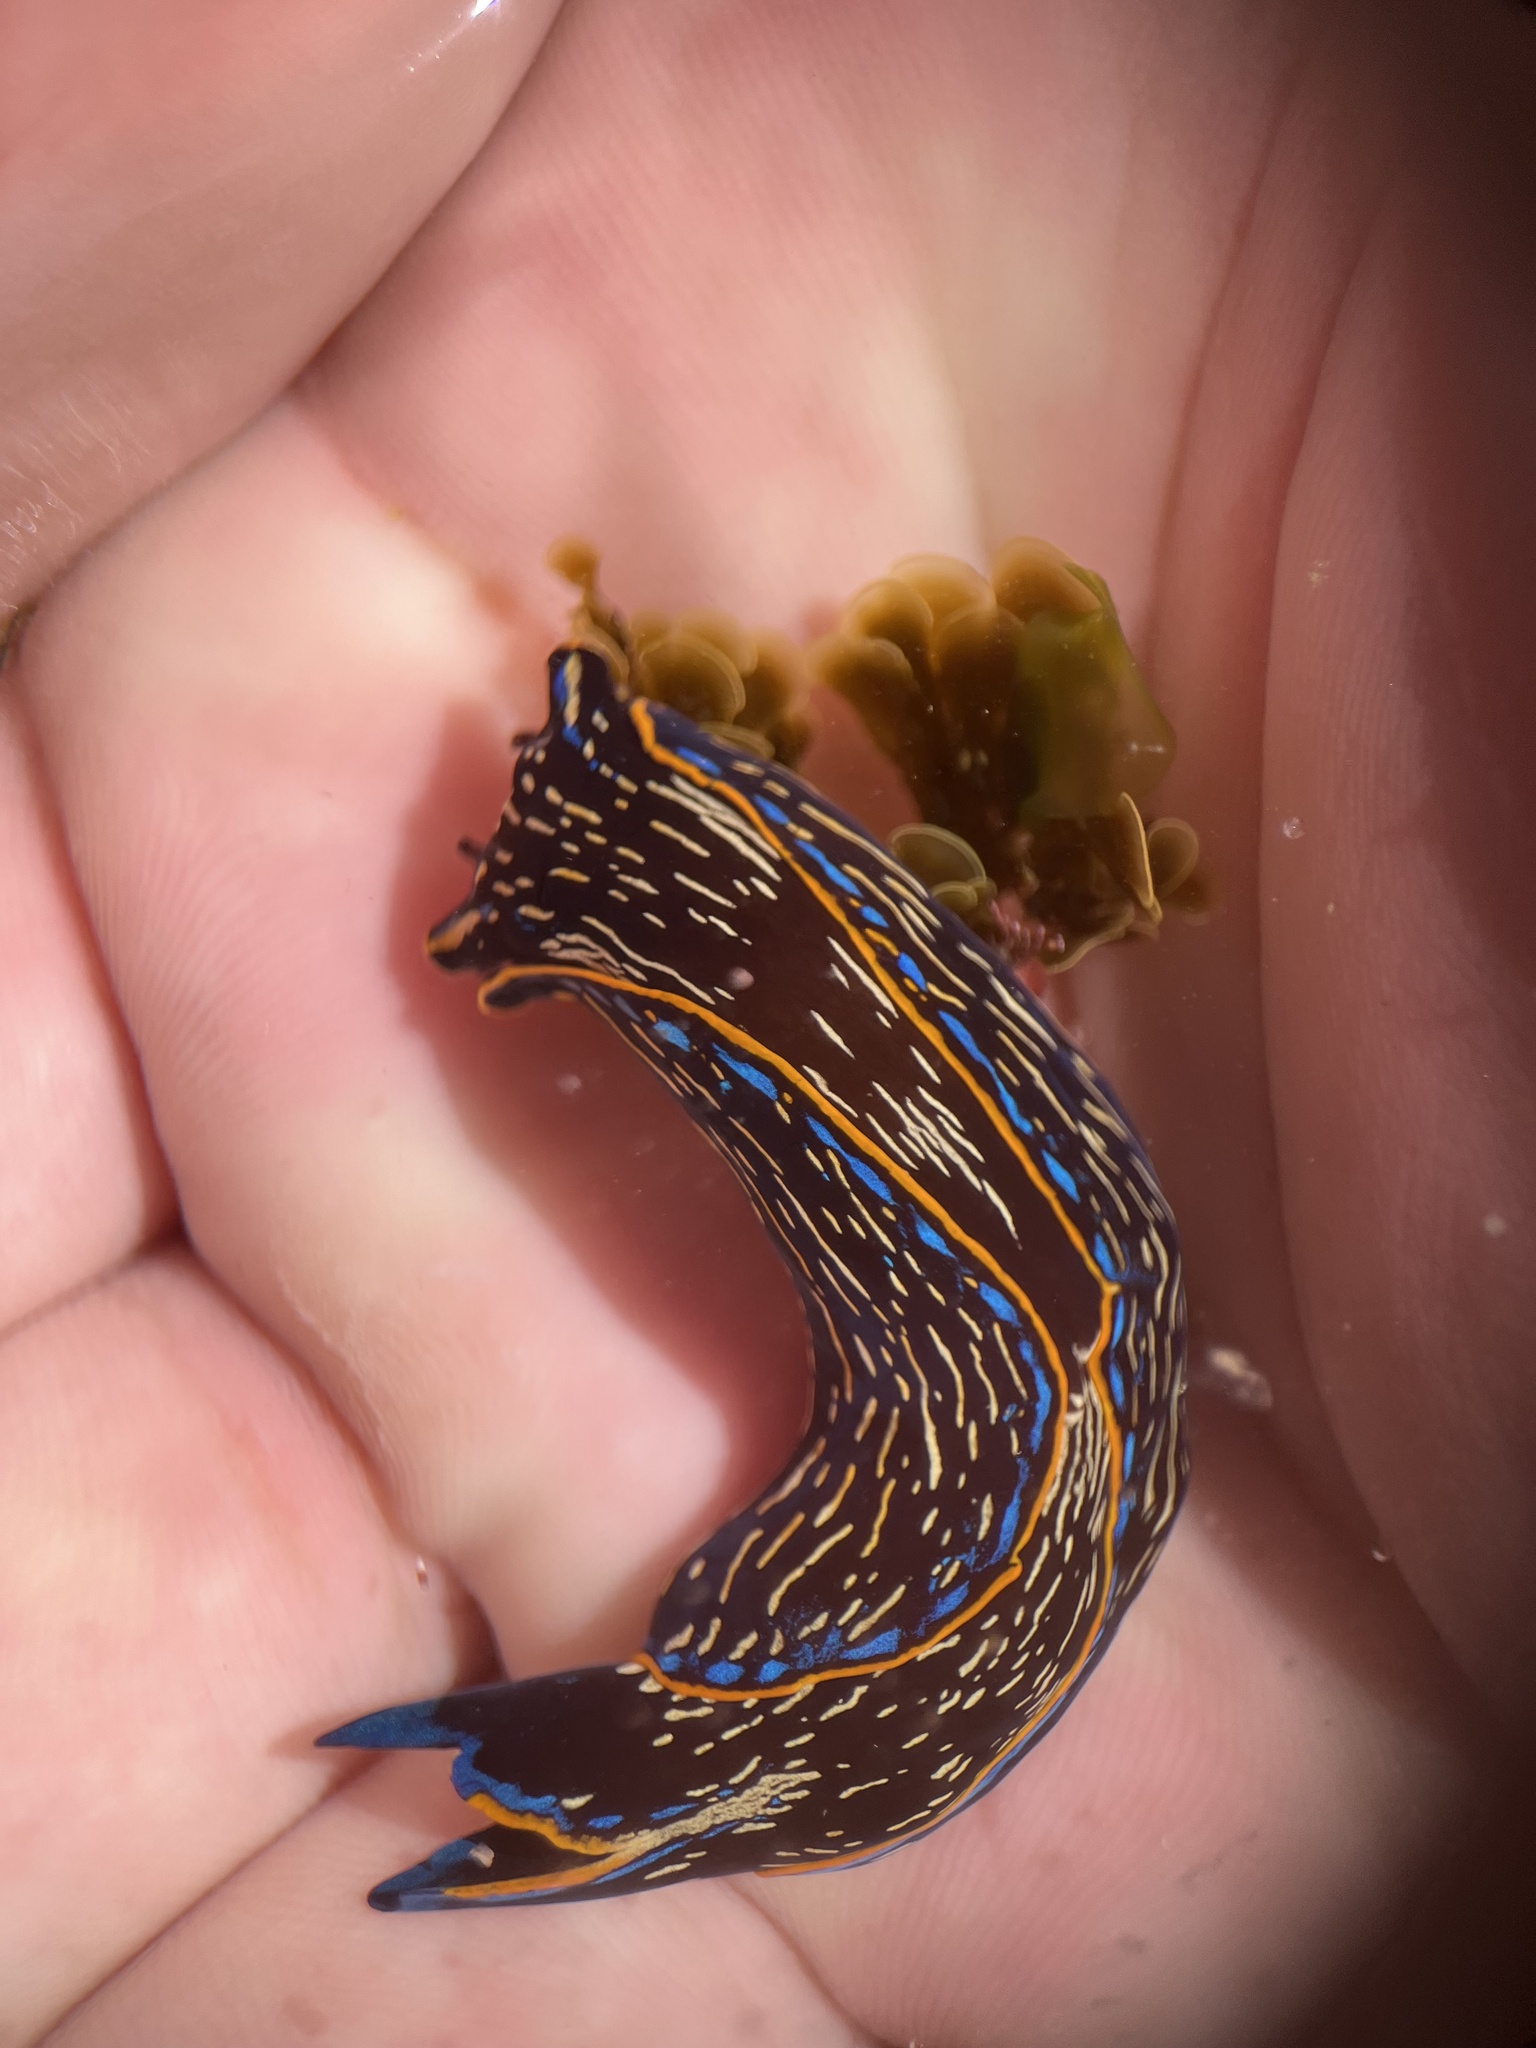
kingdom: Animalia
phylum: Mollusca
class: Gastropoda
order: Cephalaspidea
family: Aglajidae
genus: Navanax
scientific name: Navanax inermis
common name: California aglaja
